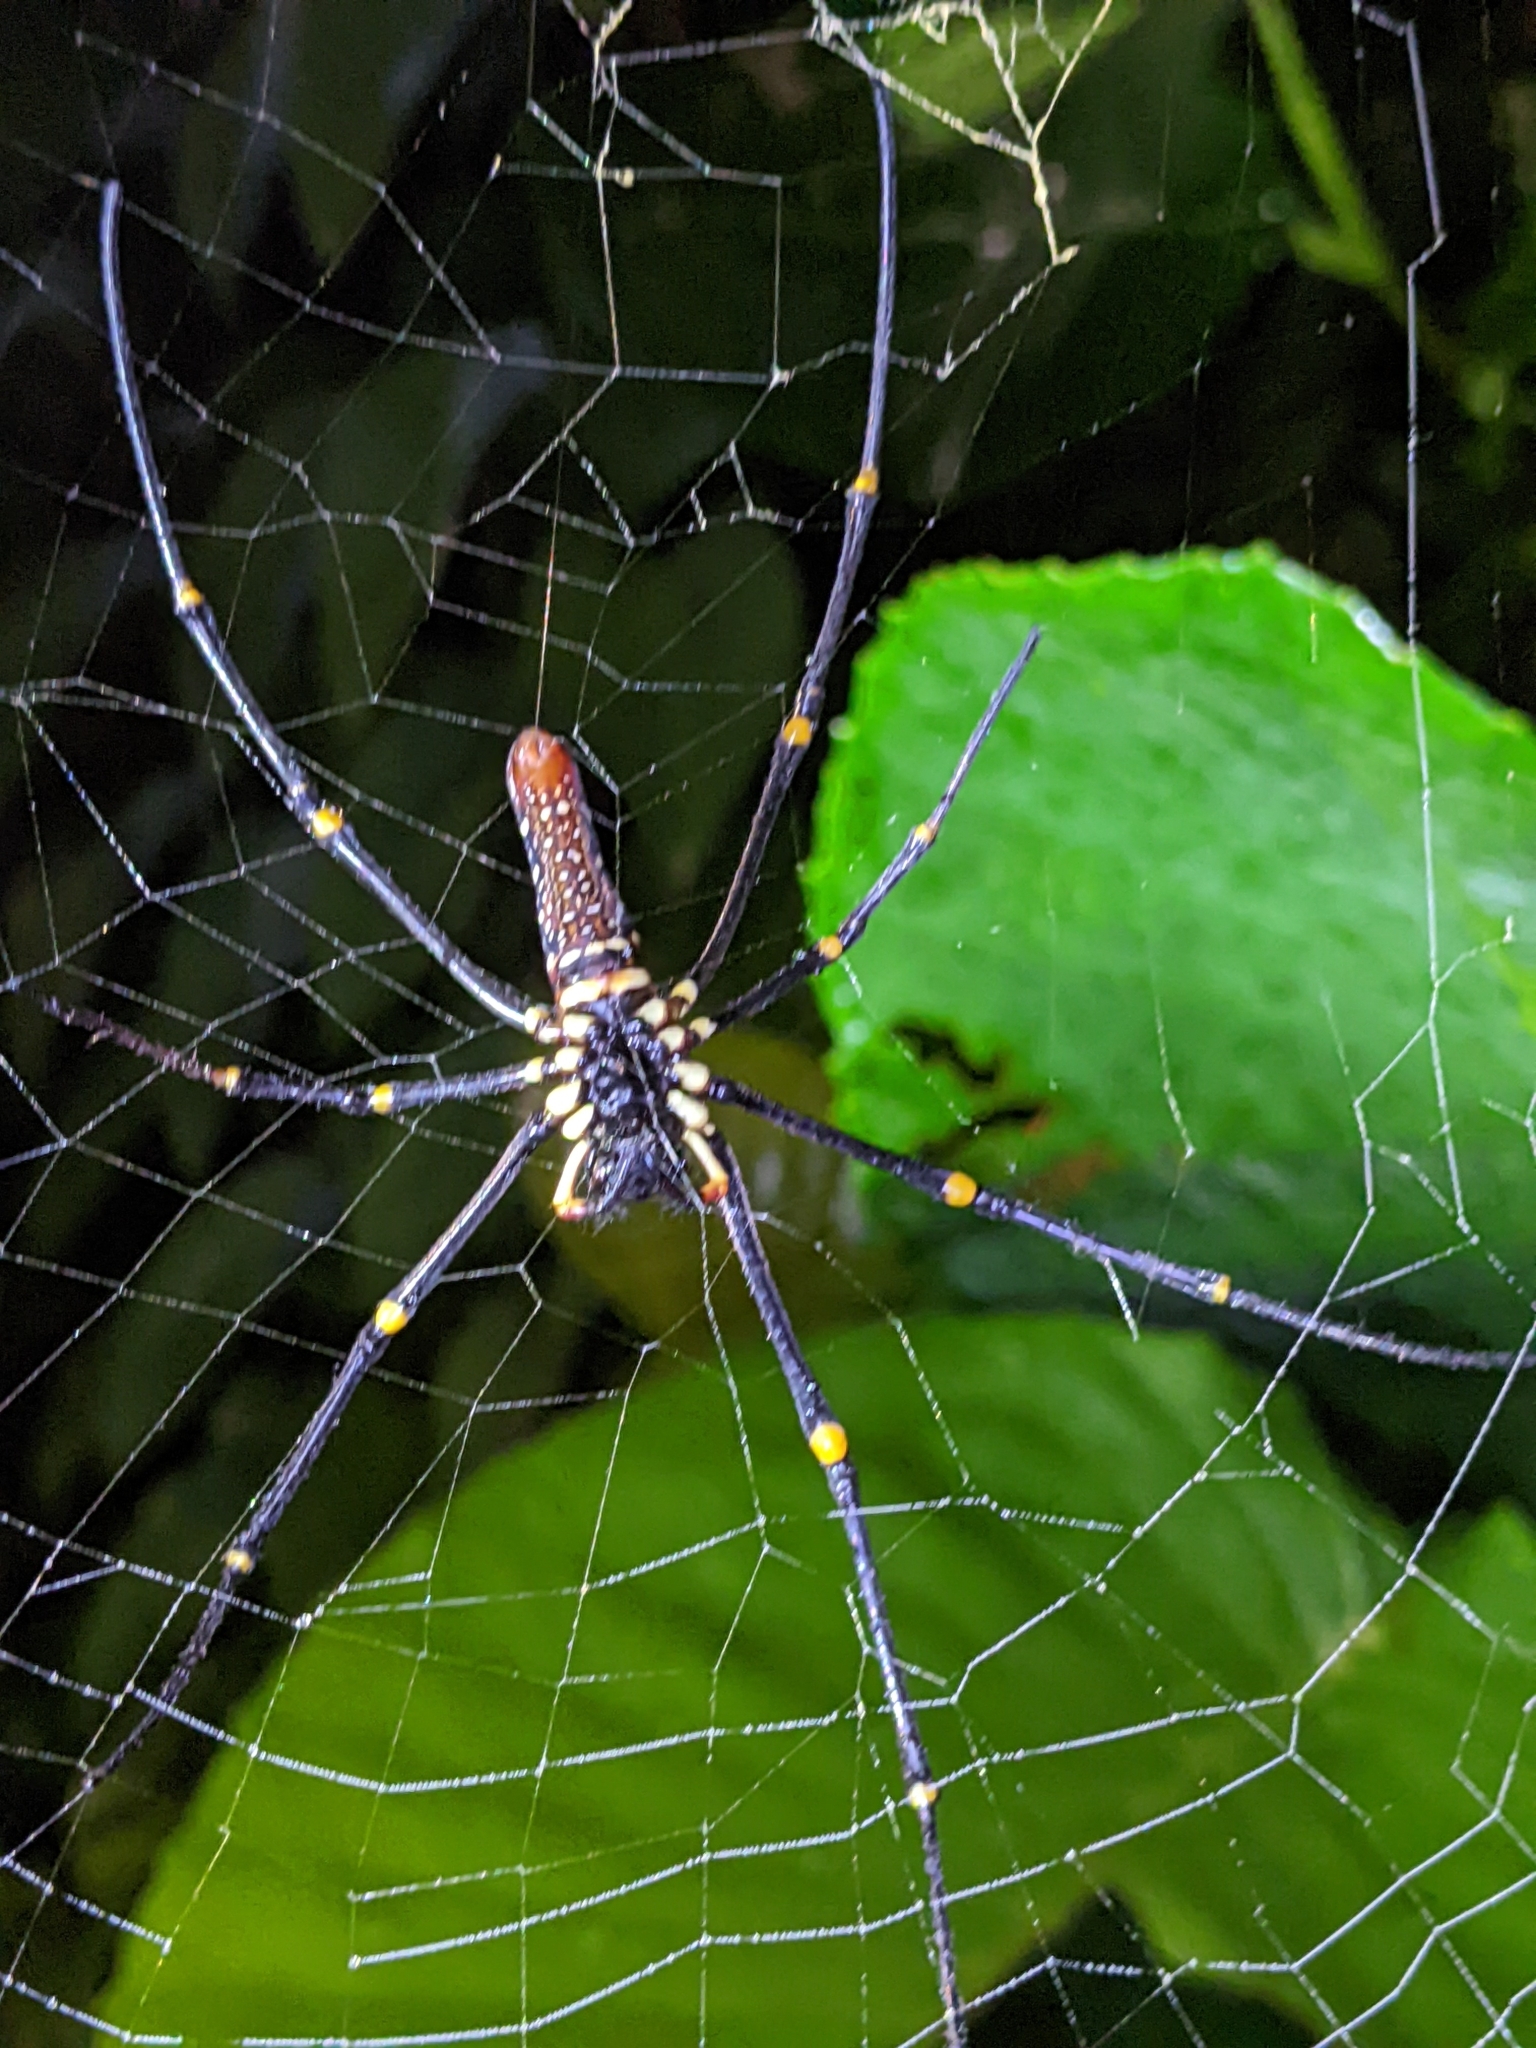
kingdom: Animalia
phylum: Arthropoda
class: Arachnida
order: Araneae
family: Araneidae
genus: Nephila
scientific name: Nephila pilipes
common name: Giant golden orb weaver
